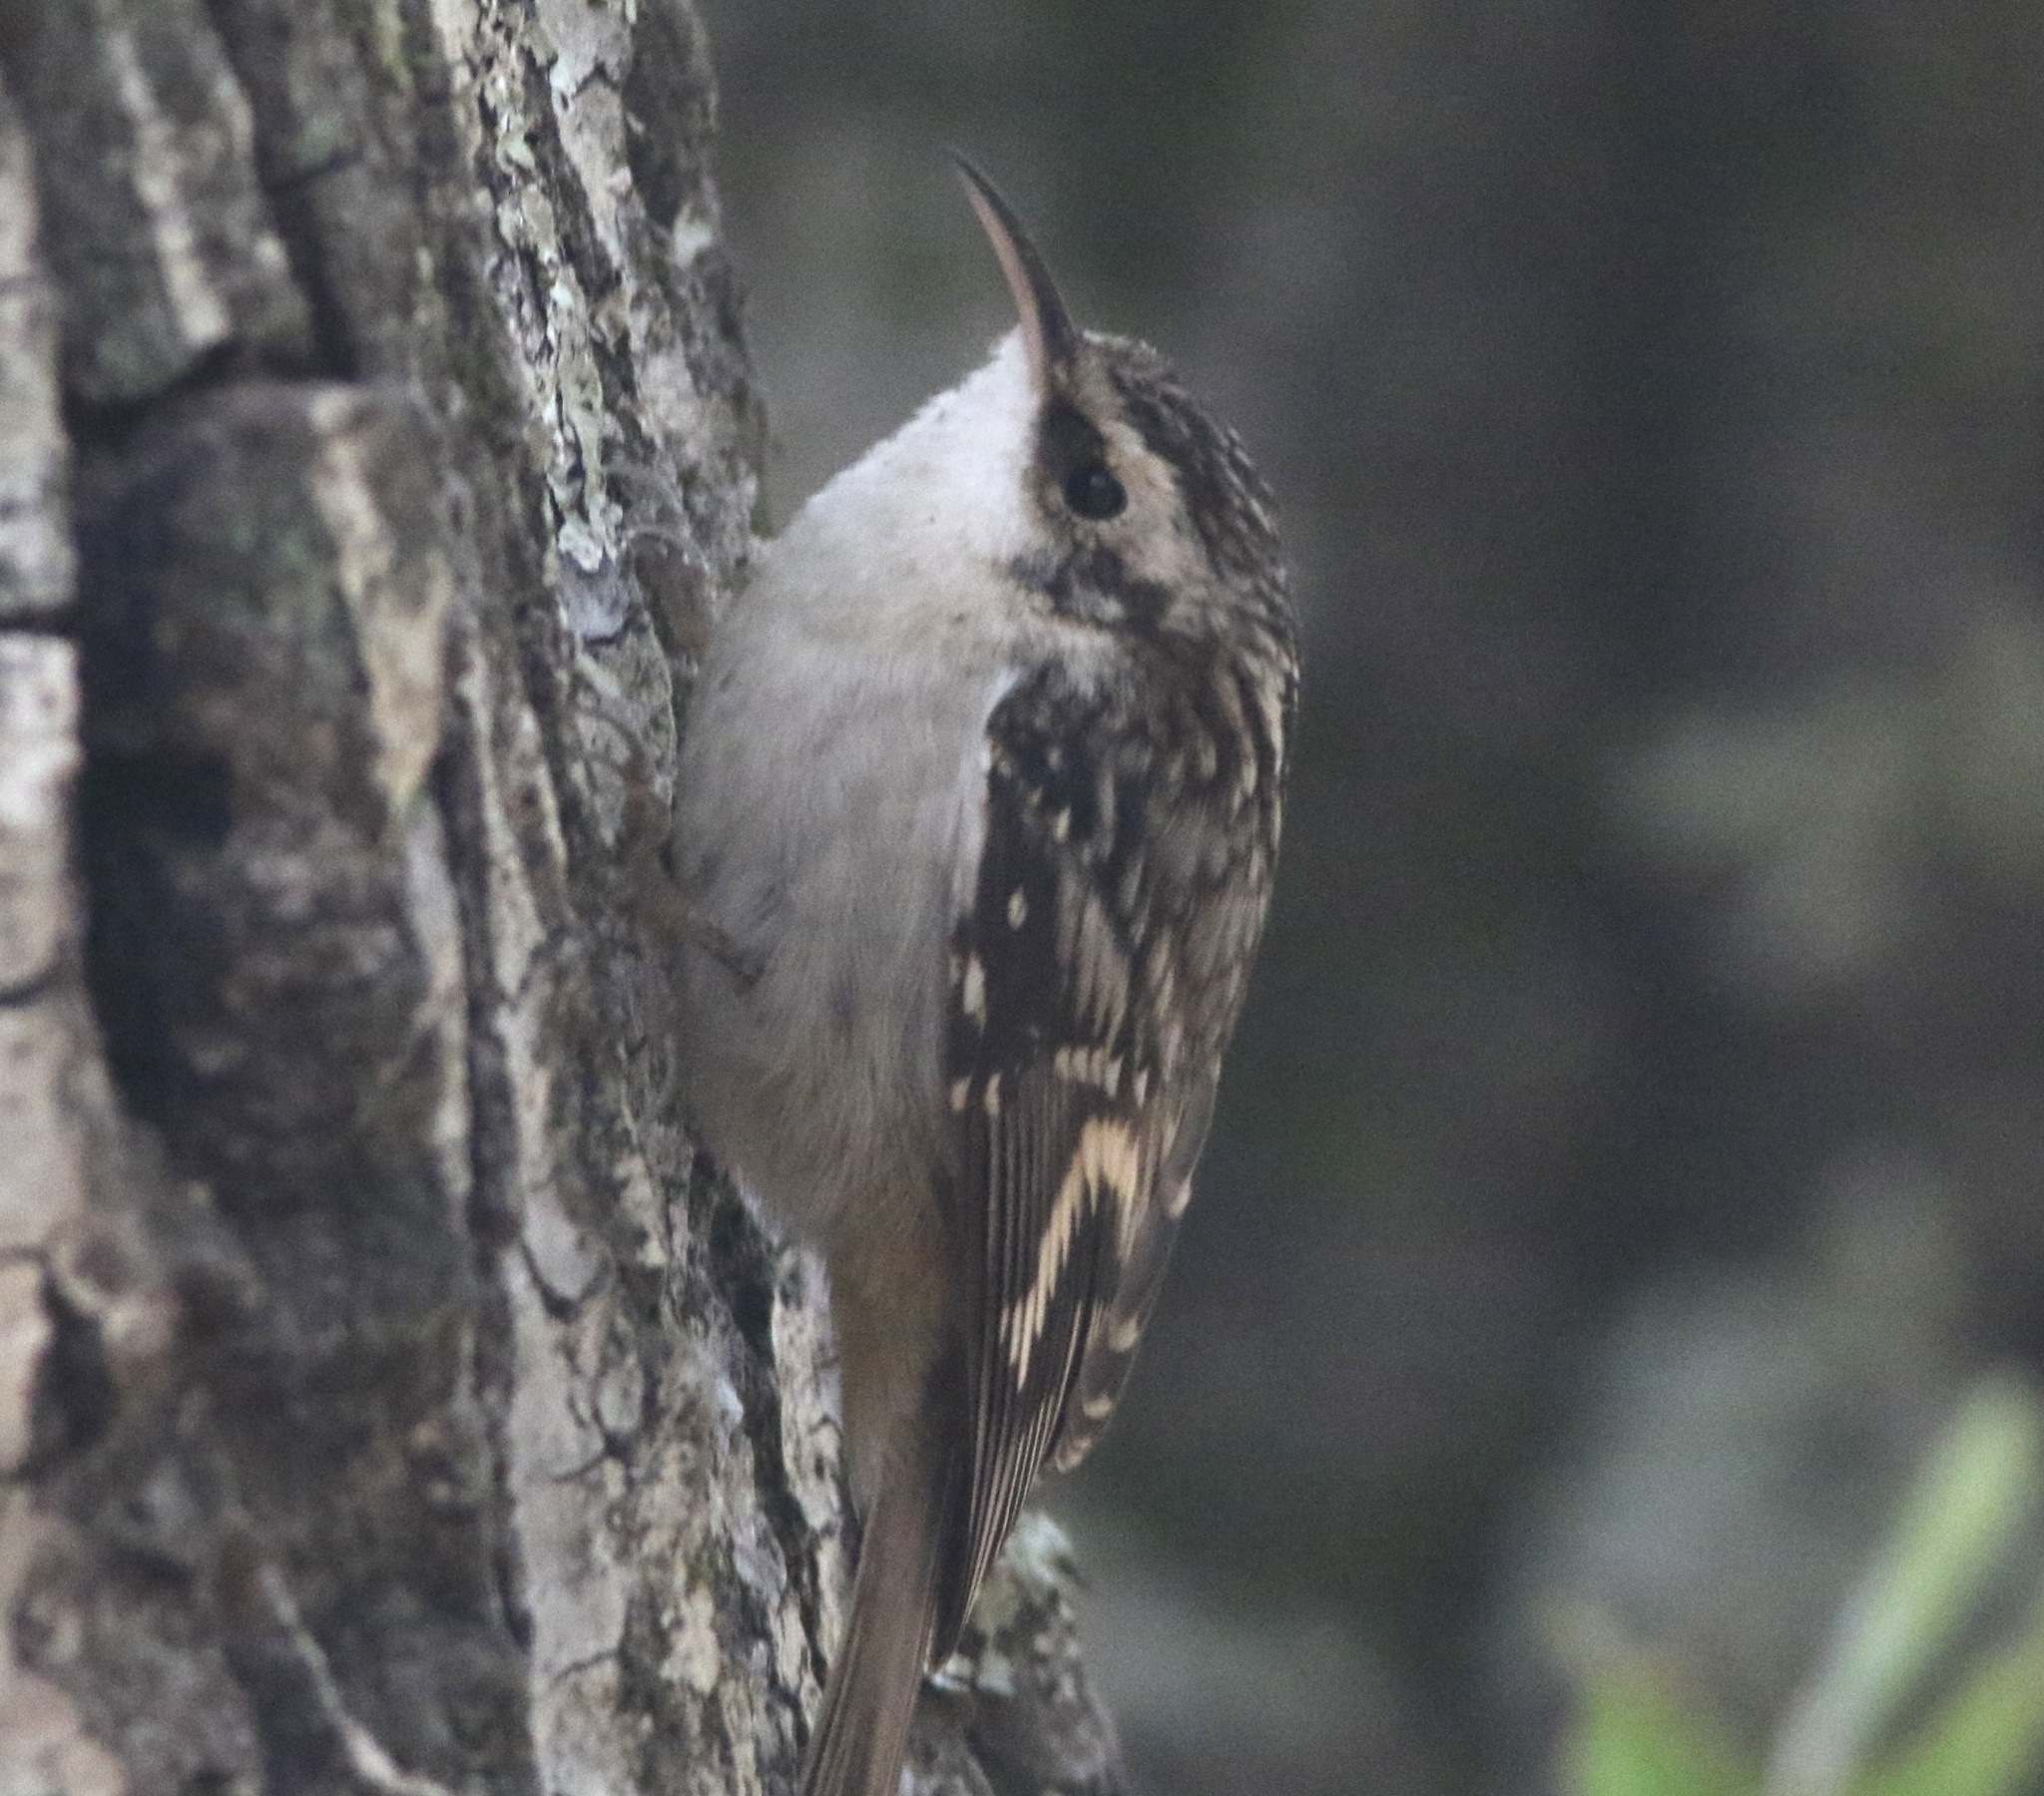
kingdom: Animalia
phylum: Chordata
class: Aves
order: Passeriformes
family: Certhiidae
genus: Certhia
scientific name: Certhia americana
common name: Brown creeper
